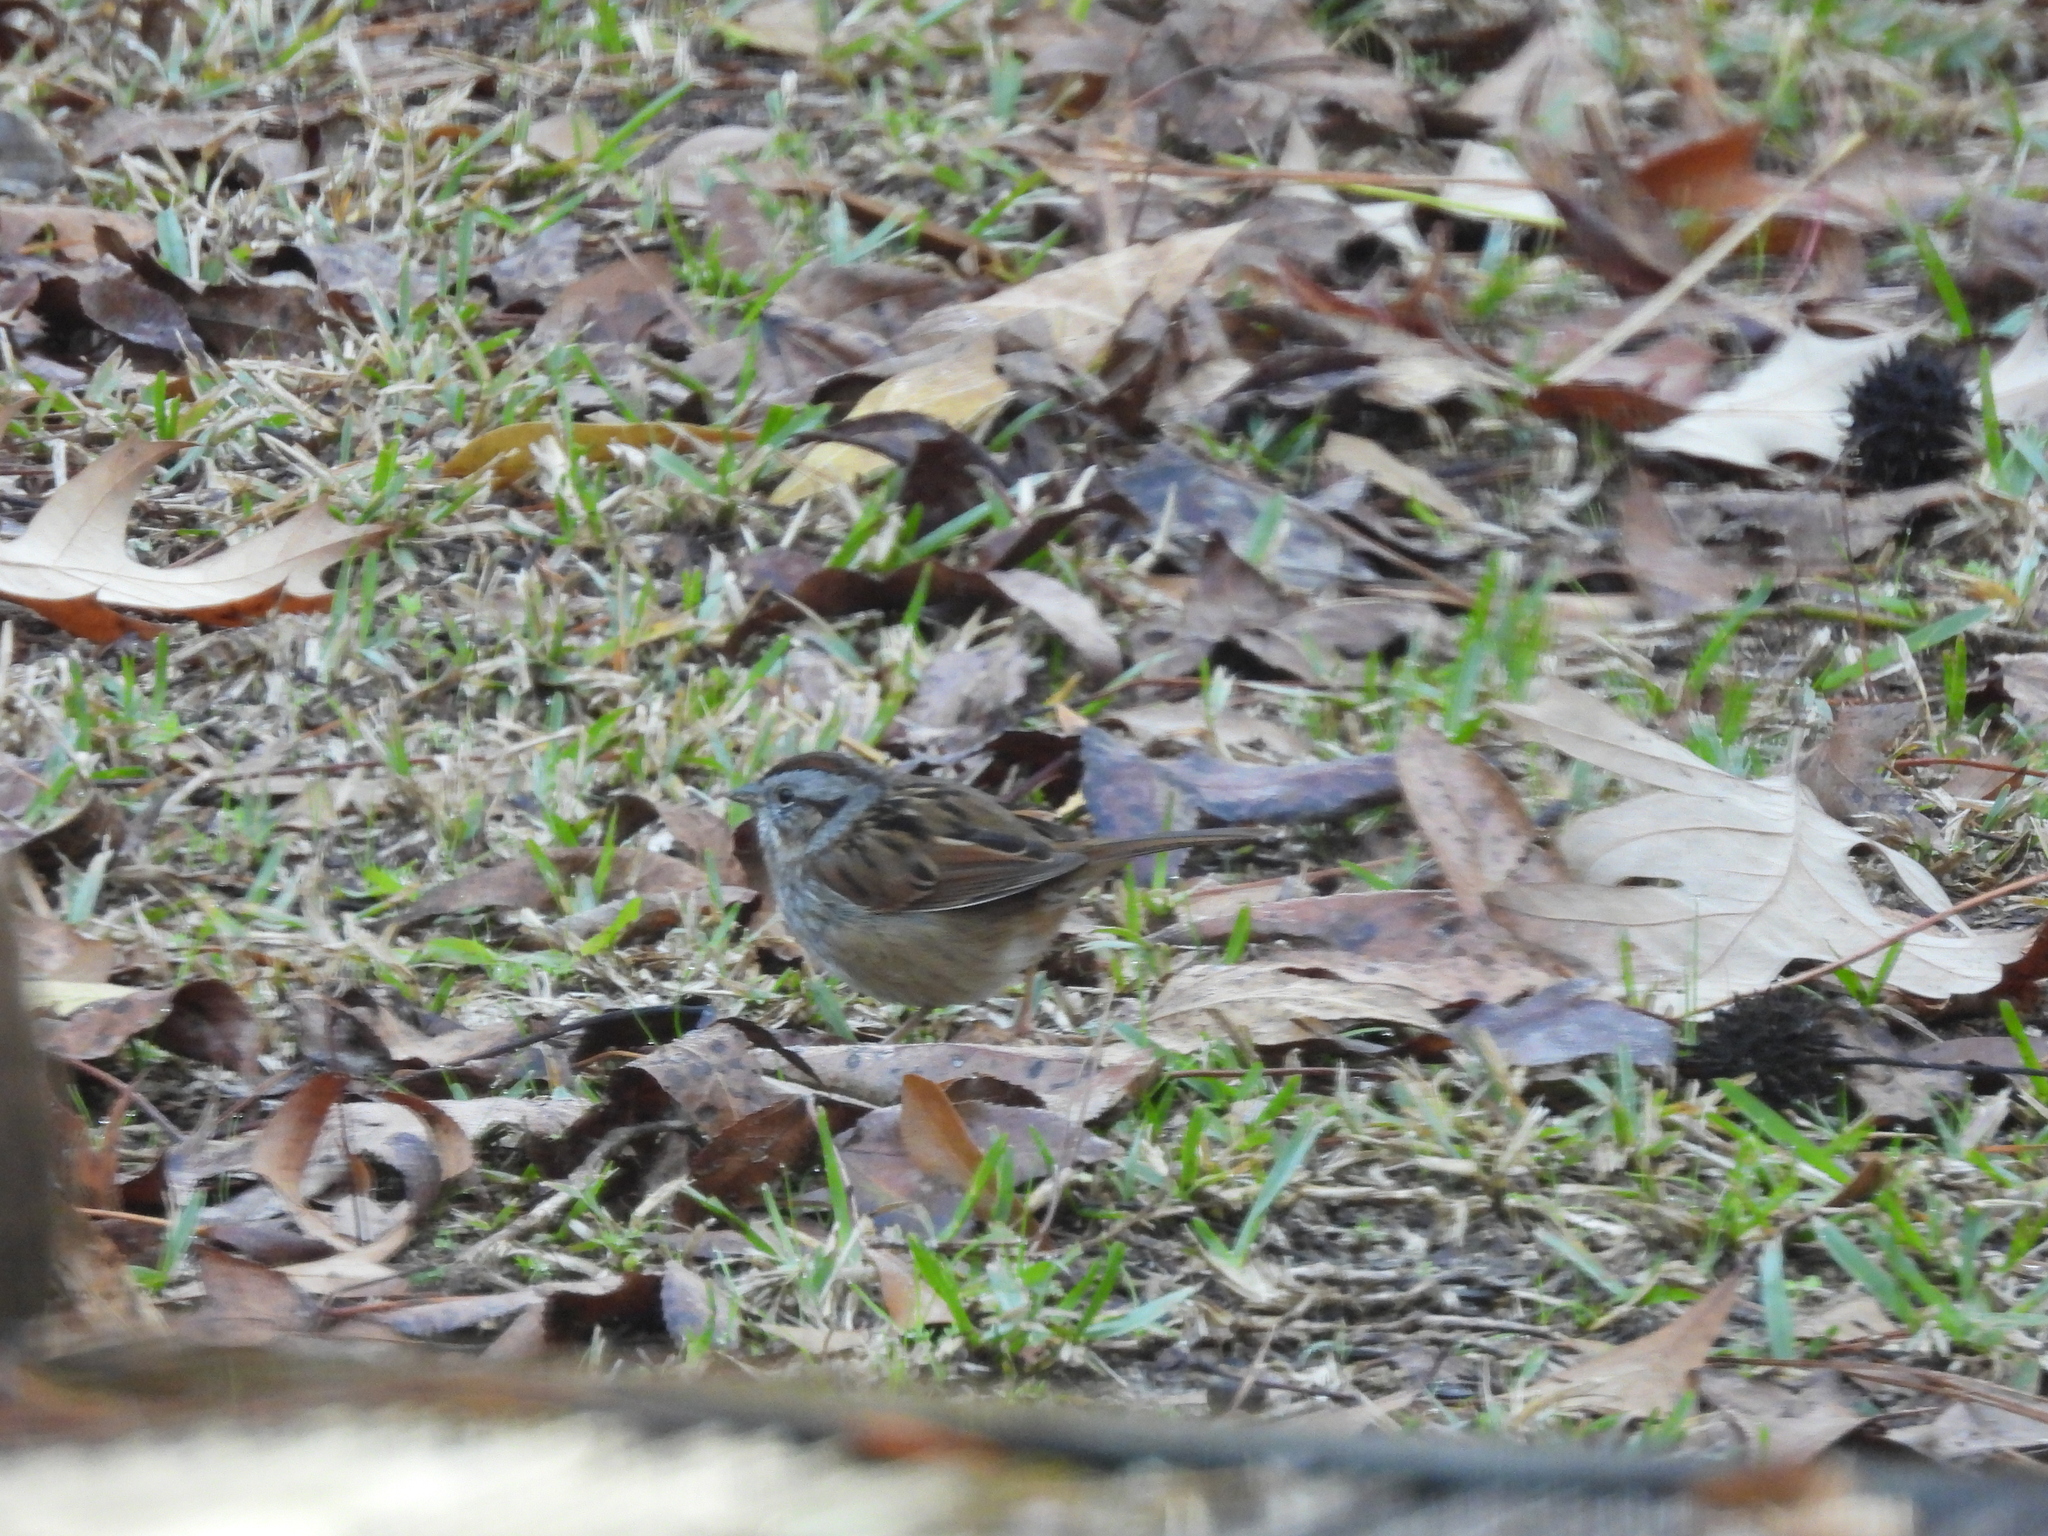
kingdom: Animalia
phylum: Chordata
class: Aves
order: Passeriformes
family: Passerellidae
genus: Melospiza
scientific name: Melospiza georgiana
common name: Swamp sparrow
